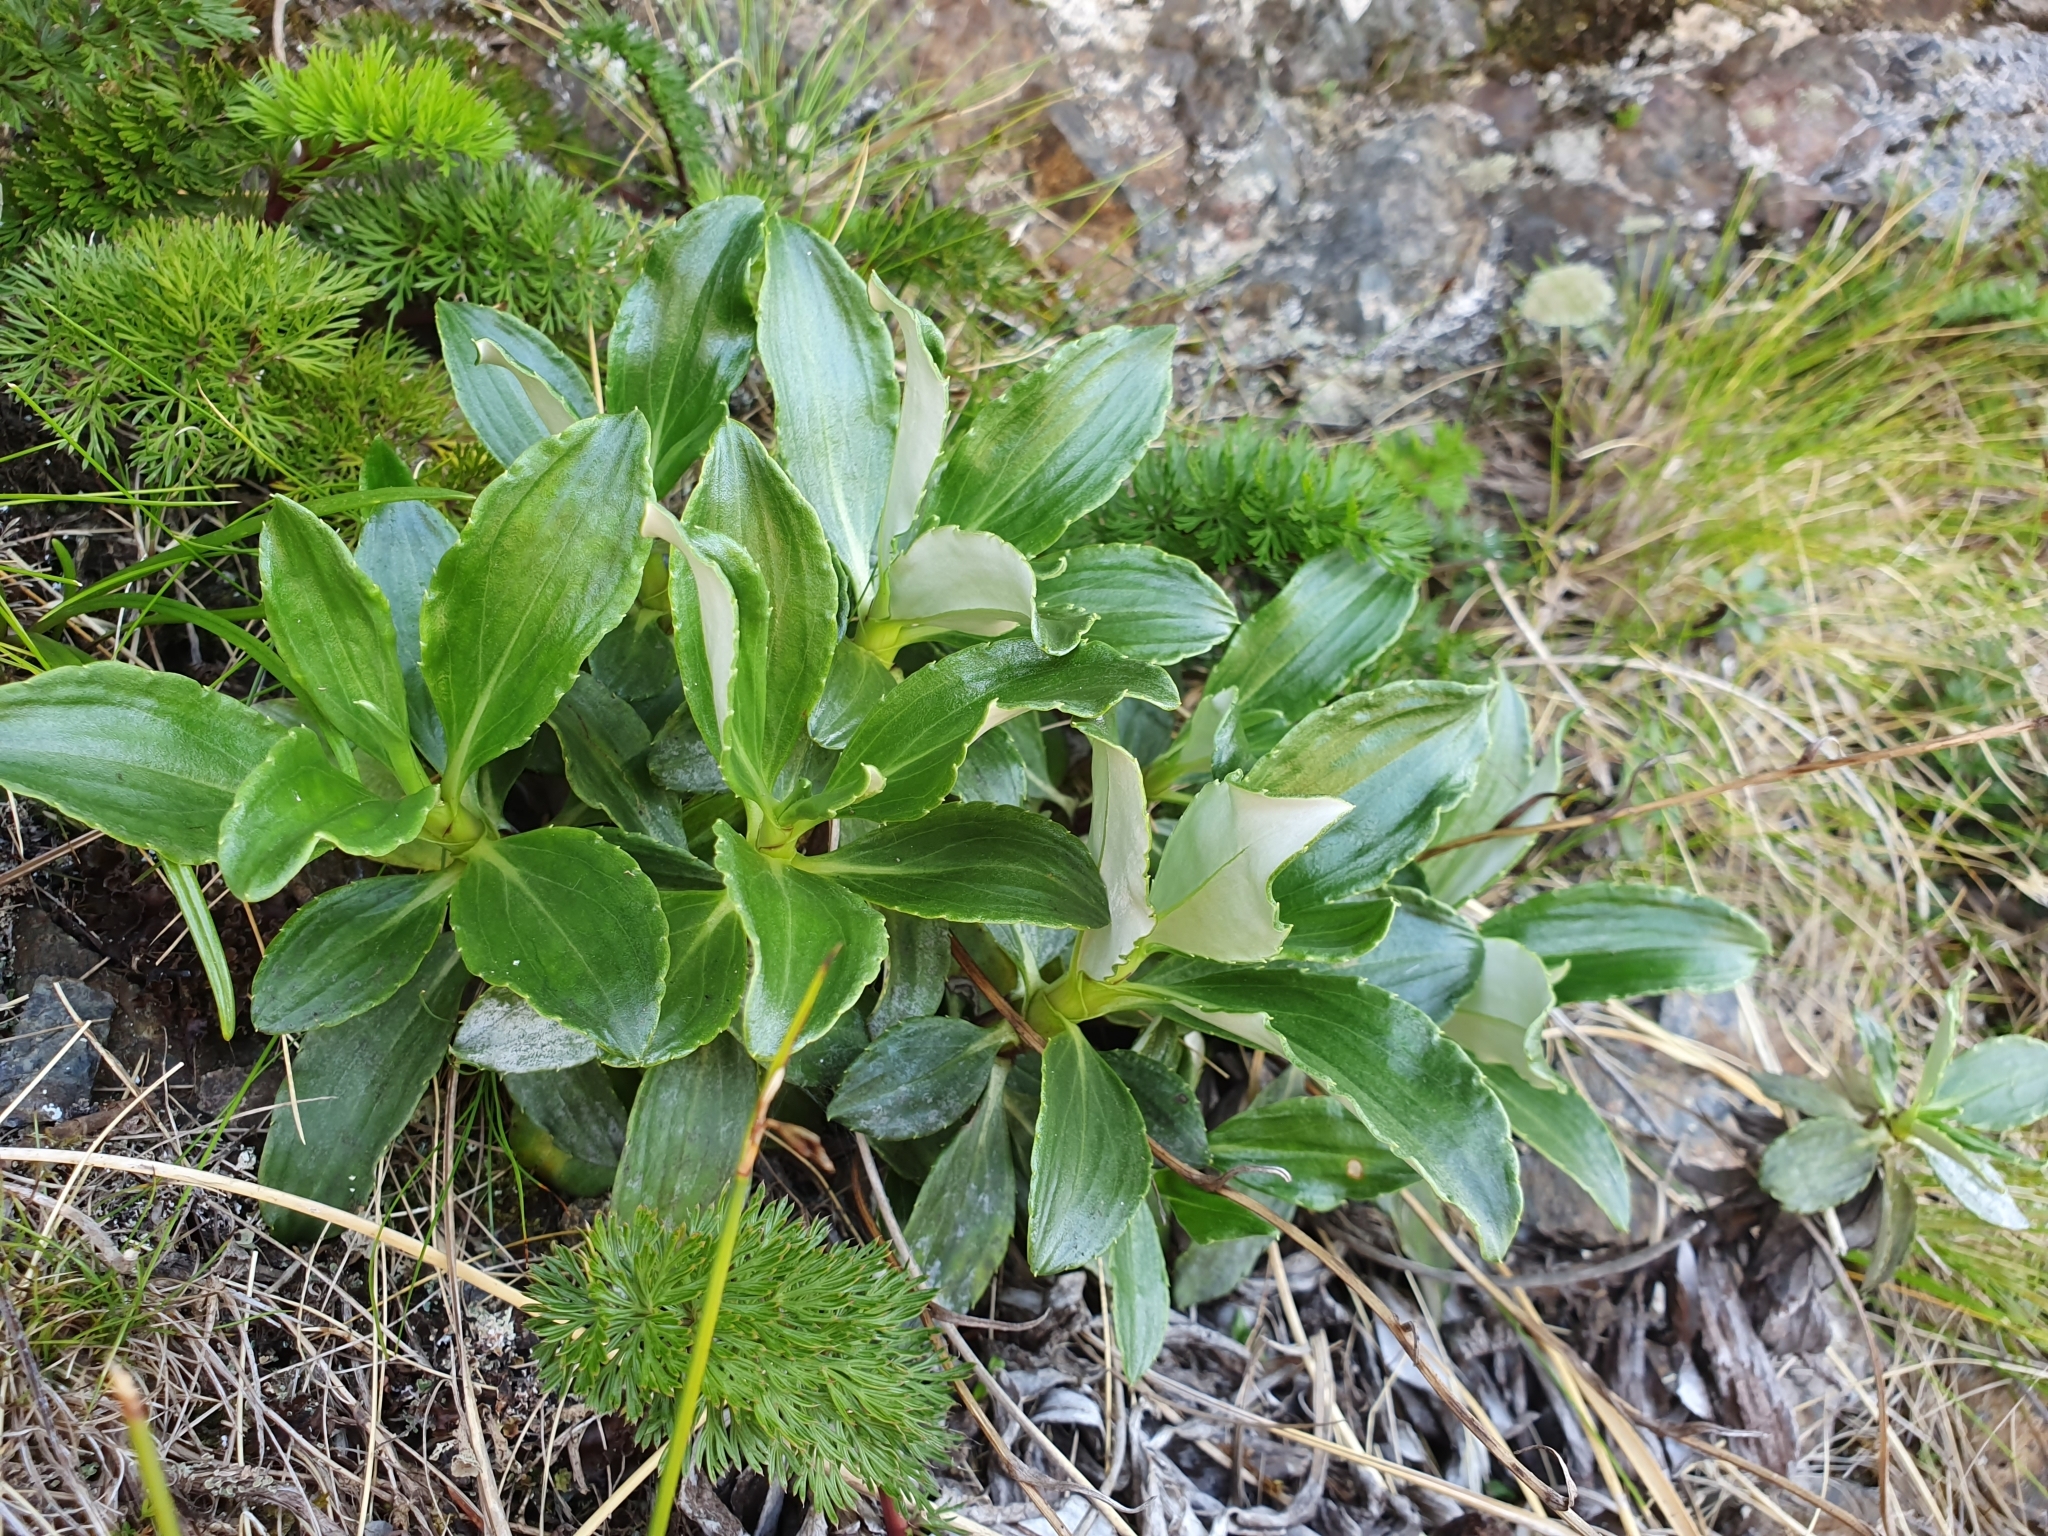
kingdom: Plantae
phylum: Tracheophyta
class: Magnoliopsida
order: Asterales
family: Asteraceae
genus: Celmisia
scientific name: Celmisia bonplandii
